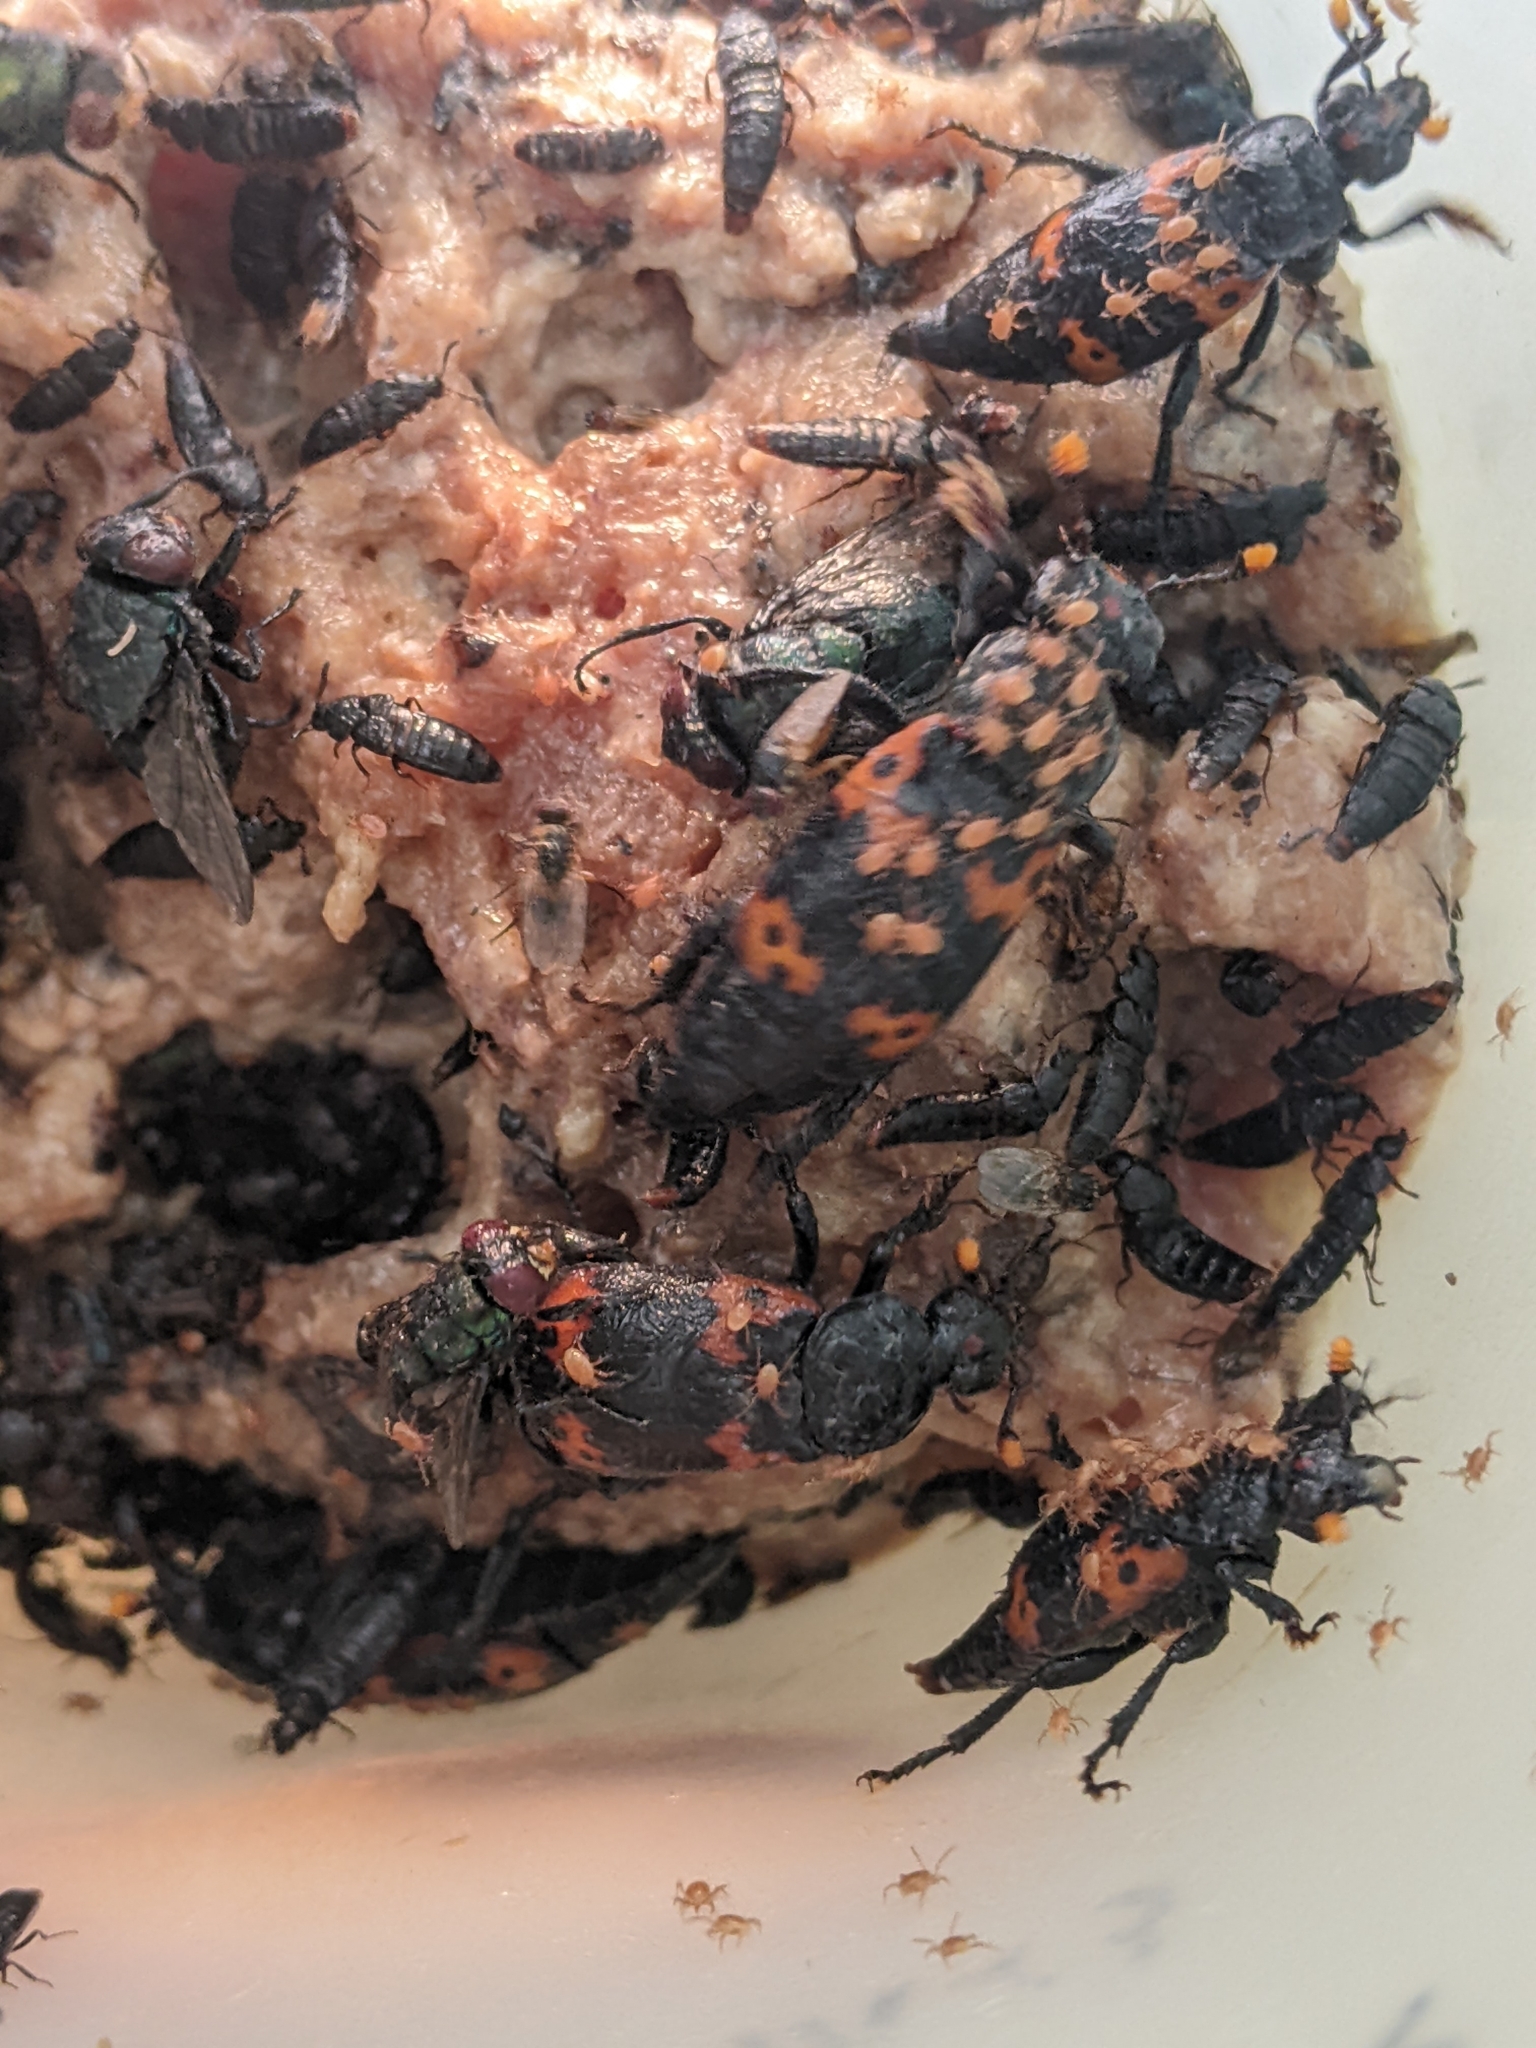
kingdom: Animalia
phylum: Arthropoda
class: Insecta
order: Coleoptera
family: Staphylinidae
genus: Nicrophorus
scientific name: Nicrophorus nepalensis
